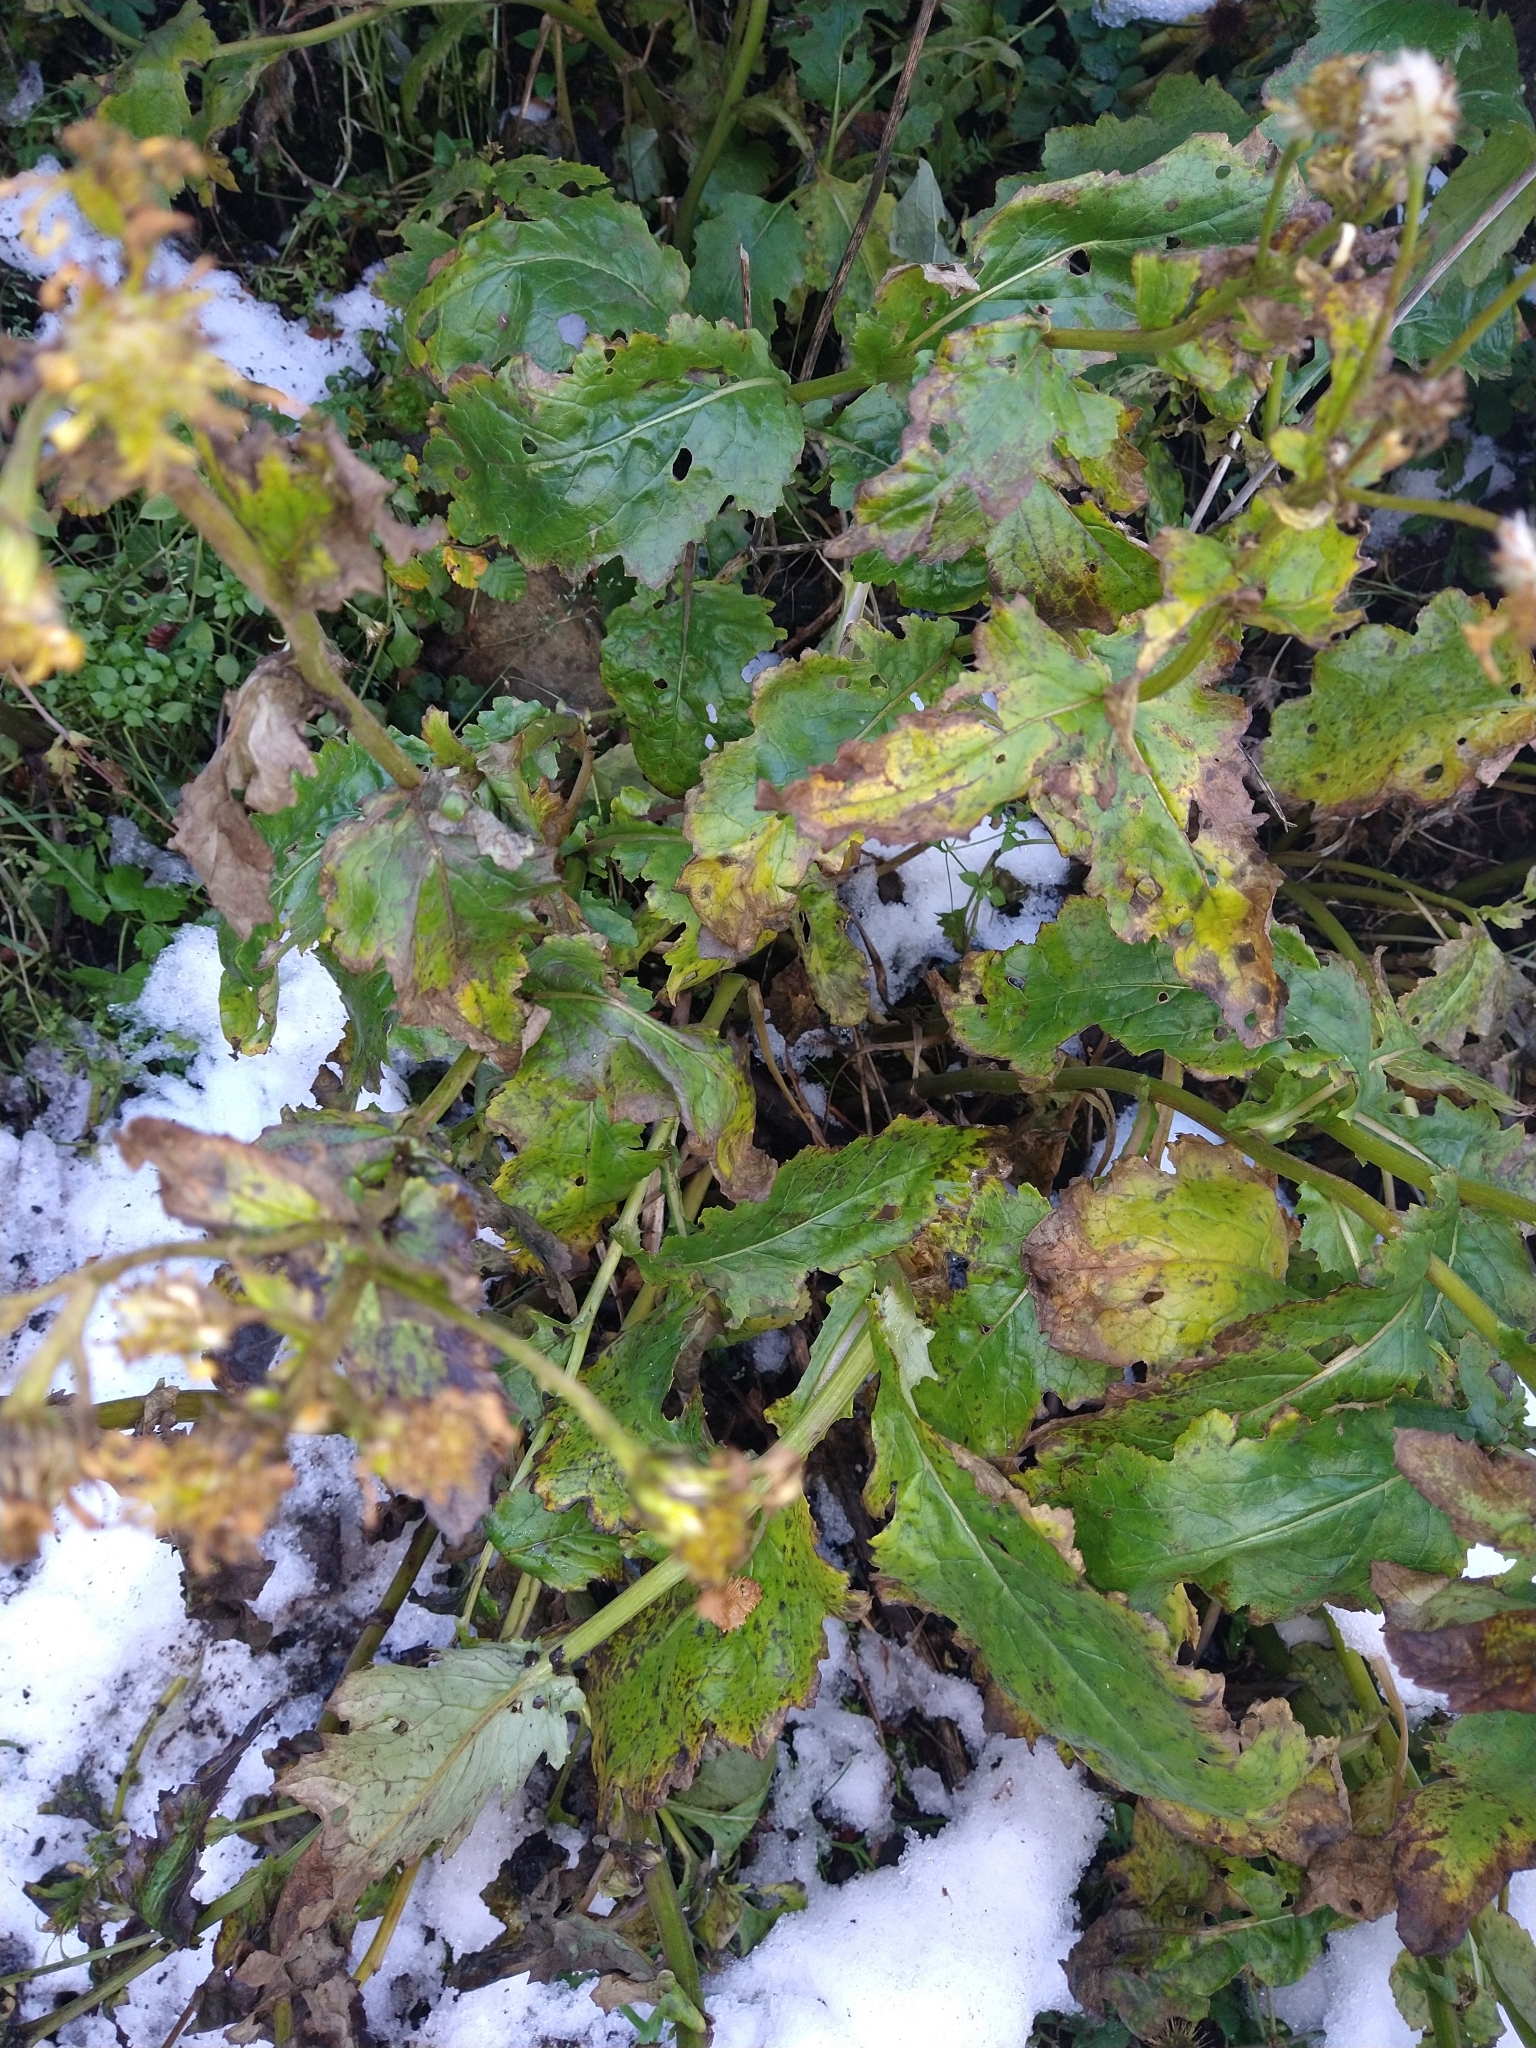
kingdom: Plantae
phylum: Tracheophyta
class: Magnoliopsida
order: Asterales
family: Asteraceae
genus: Senecio
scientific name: Senecio smithii
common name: Magellan ragwort
